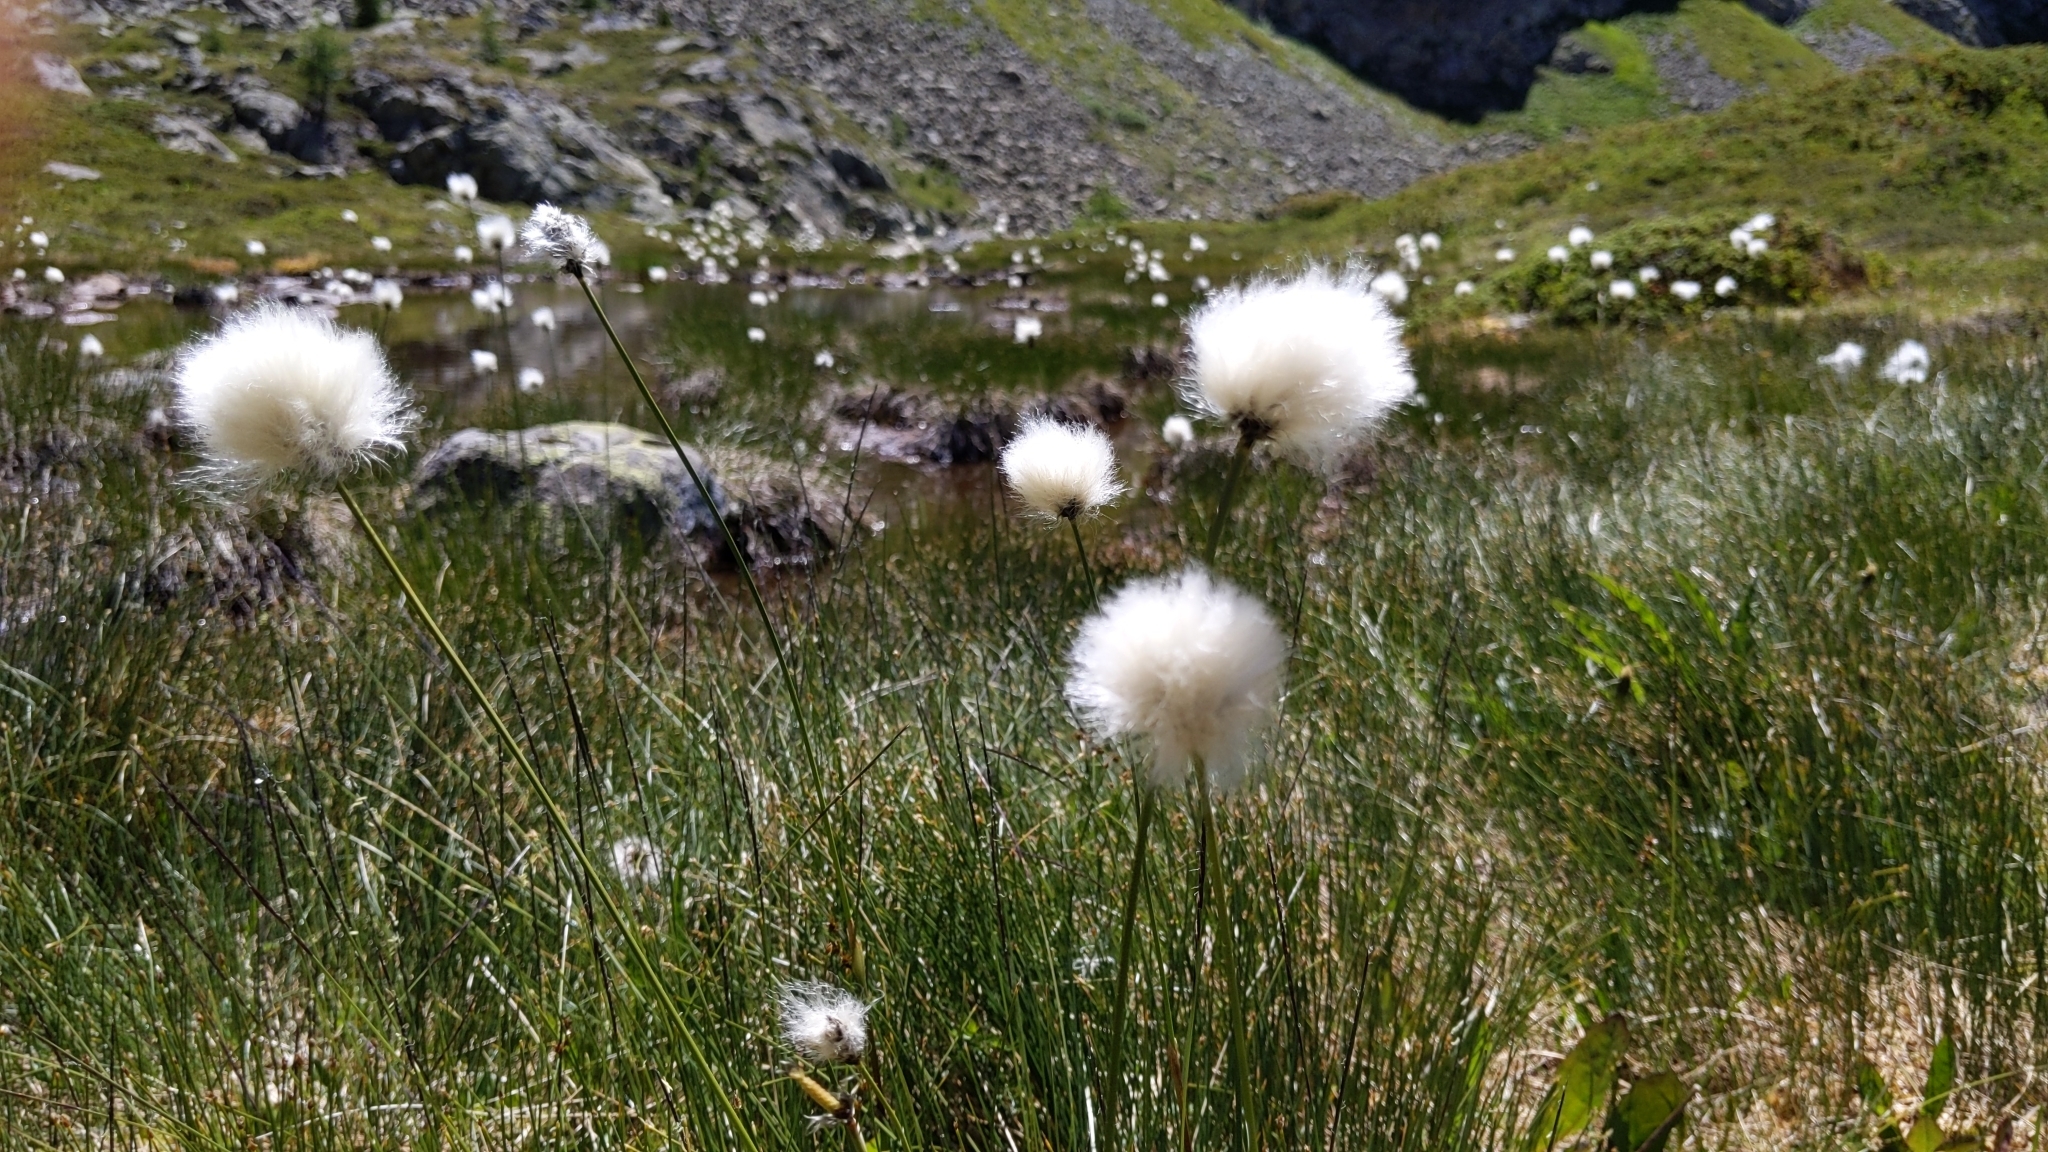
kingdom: Plantae
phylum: Tracheophyta
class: Liliopsida
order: Poales
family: Cyperaceae
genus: Eriophorum
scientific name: Eriophorum scheuchzeri
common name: Scheuchzer's cottongrass
